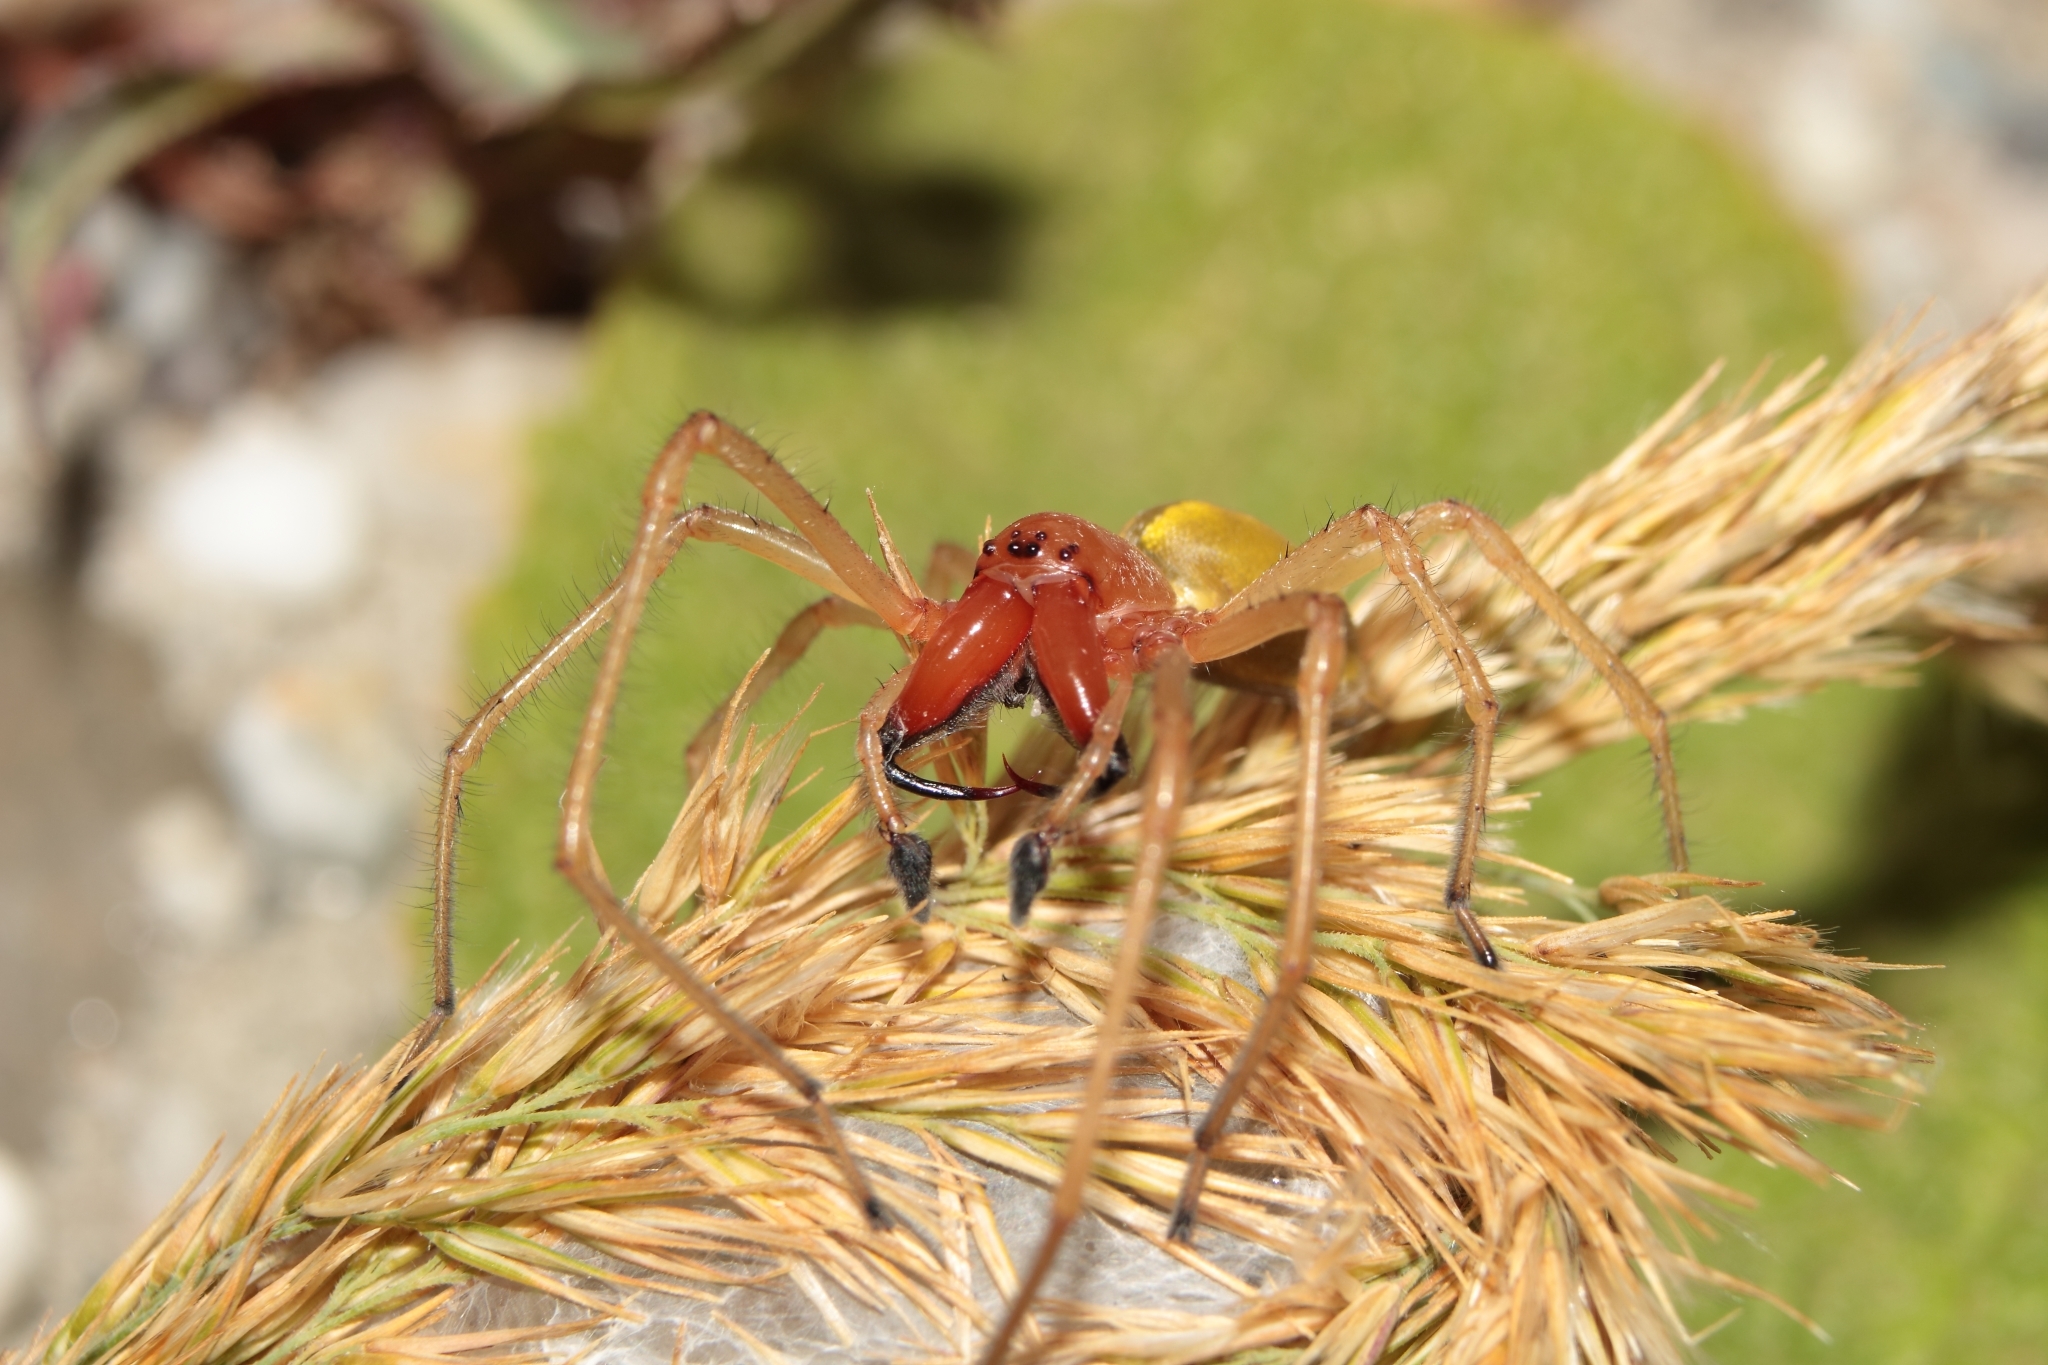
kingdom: Animalia
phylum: Arthropoda
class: Arachnida
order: Araneae
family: Cheiracanthiidae
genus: Cheiracanthium
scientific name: Cheiracanthium punctorium
